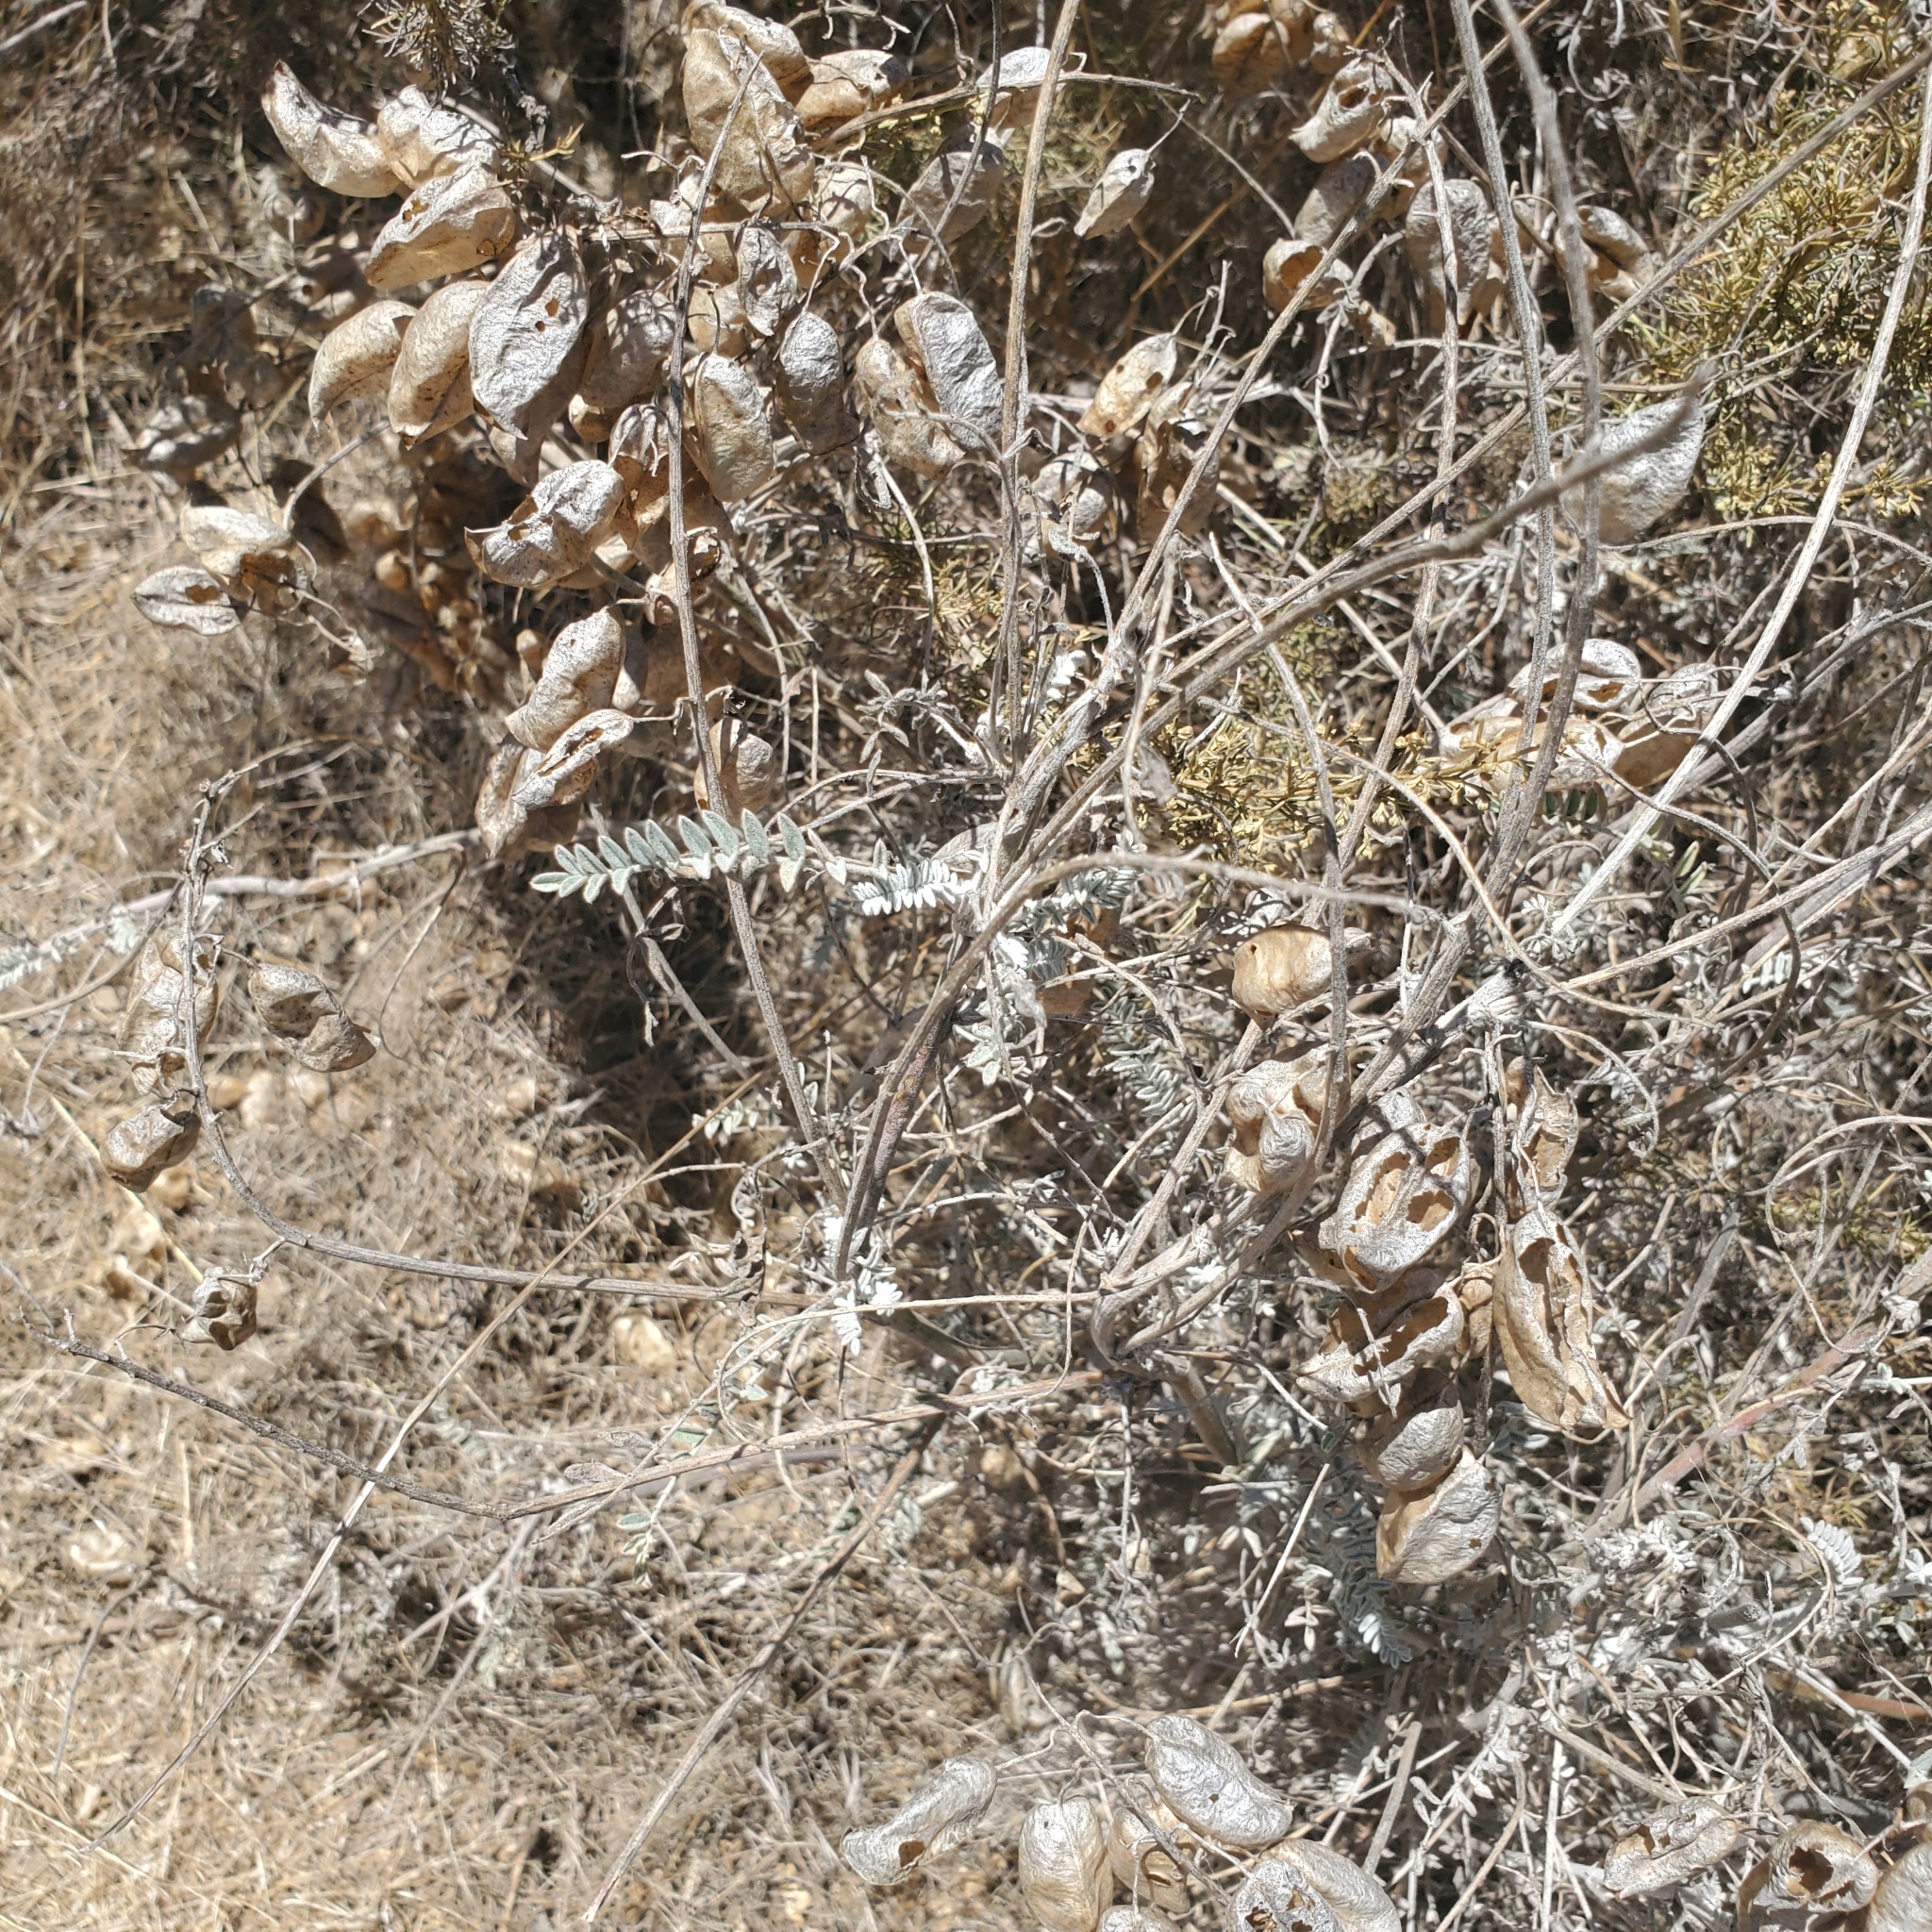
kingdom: Plantae
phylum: Tracheophyta
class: Magnoliopsida
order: Fabales
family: Fabaceae
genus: Astragalus
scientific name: Astragalus trichopodus
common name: Santa barbara milk-vetch
